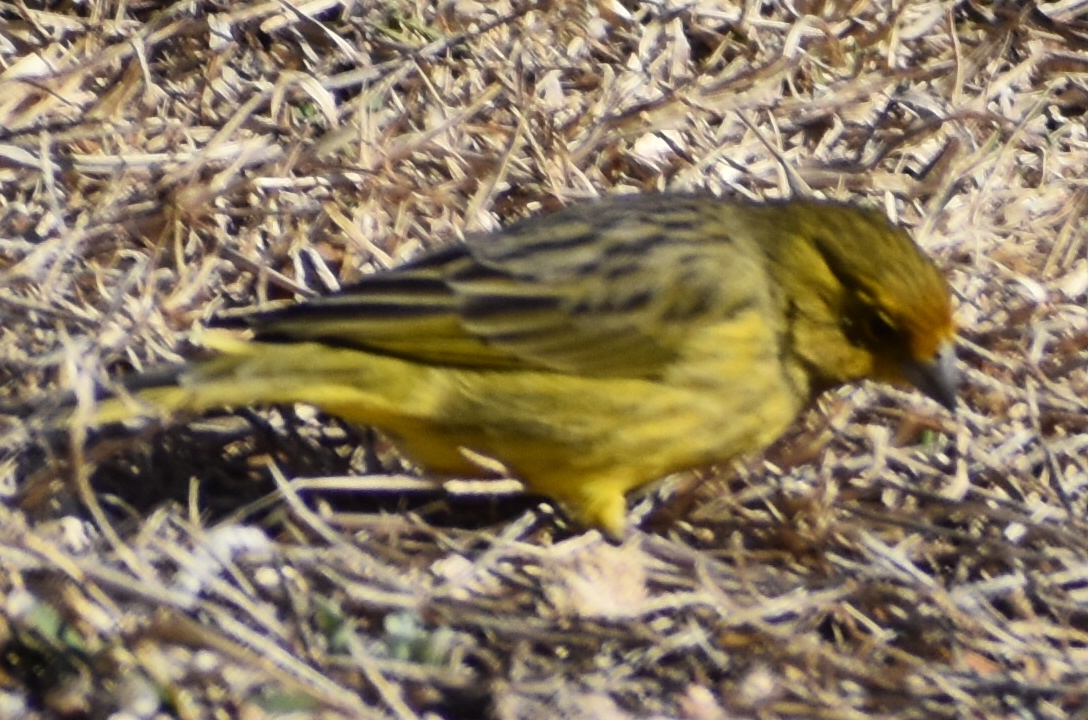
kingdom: Animalia
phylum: Chordata
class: Aves
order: Passeriformes
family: Thraupidae
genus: Sicalis
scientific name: Sicalis flaveola
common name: Saffron finch
